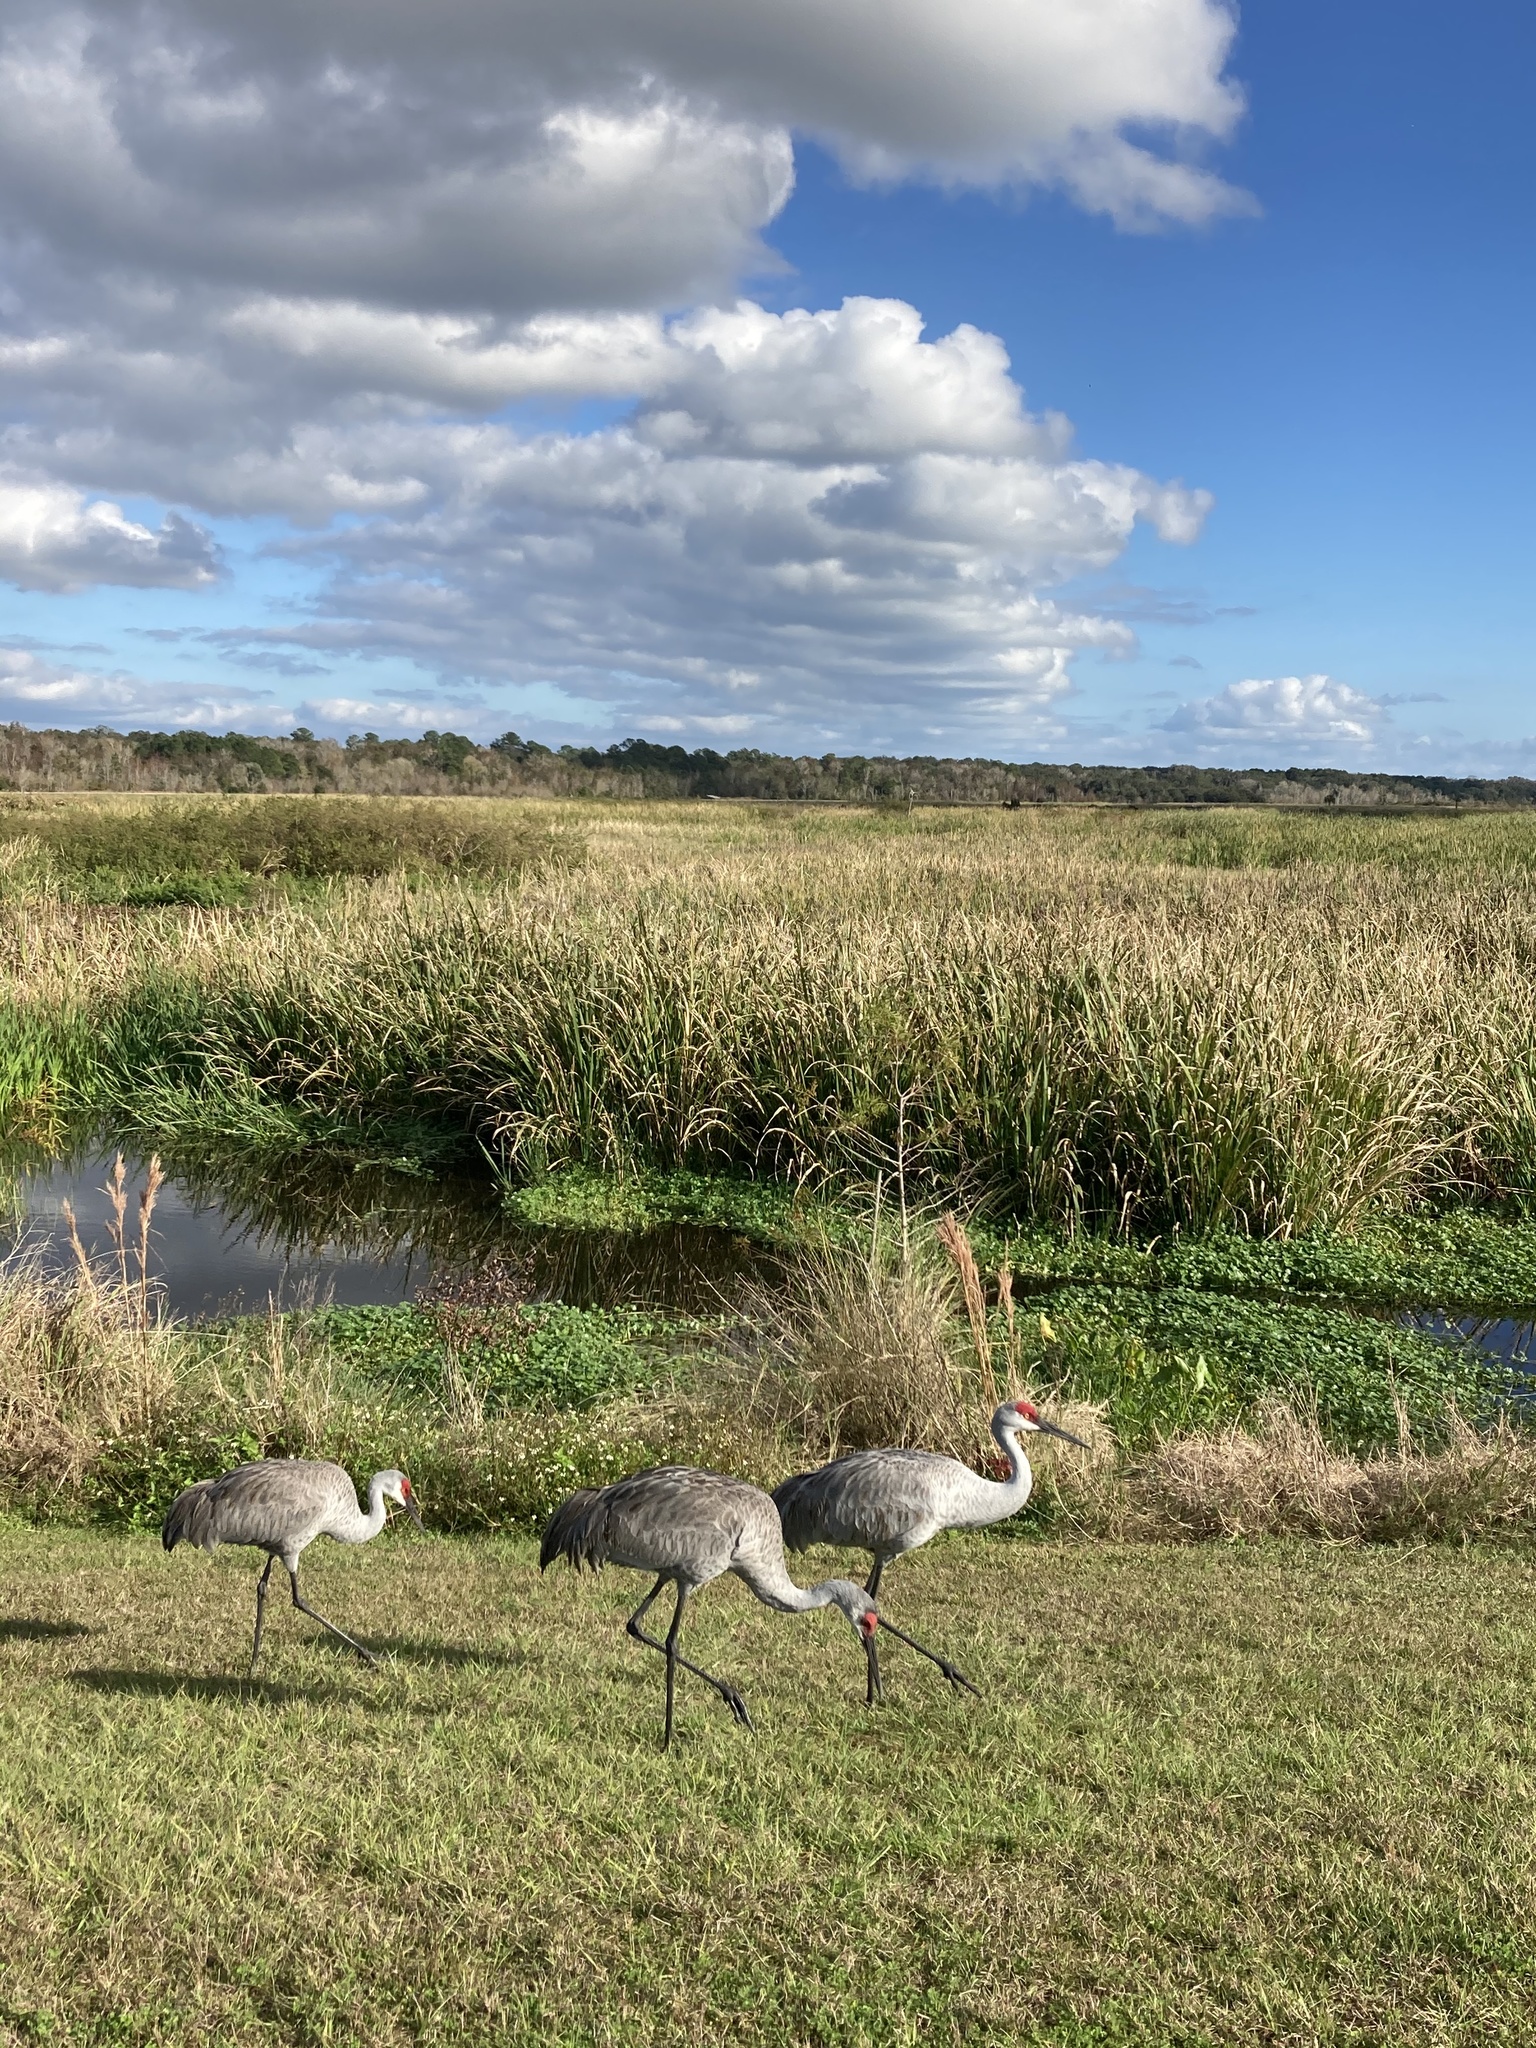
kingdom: Animalia
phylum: Chordata
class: Aves
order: Gruiformes
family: Gruidae
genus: Grus
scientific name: Grus canadensis
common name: Sandhill crane
